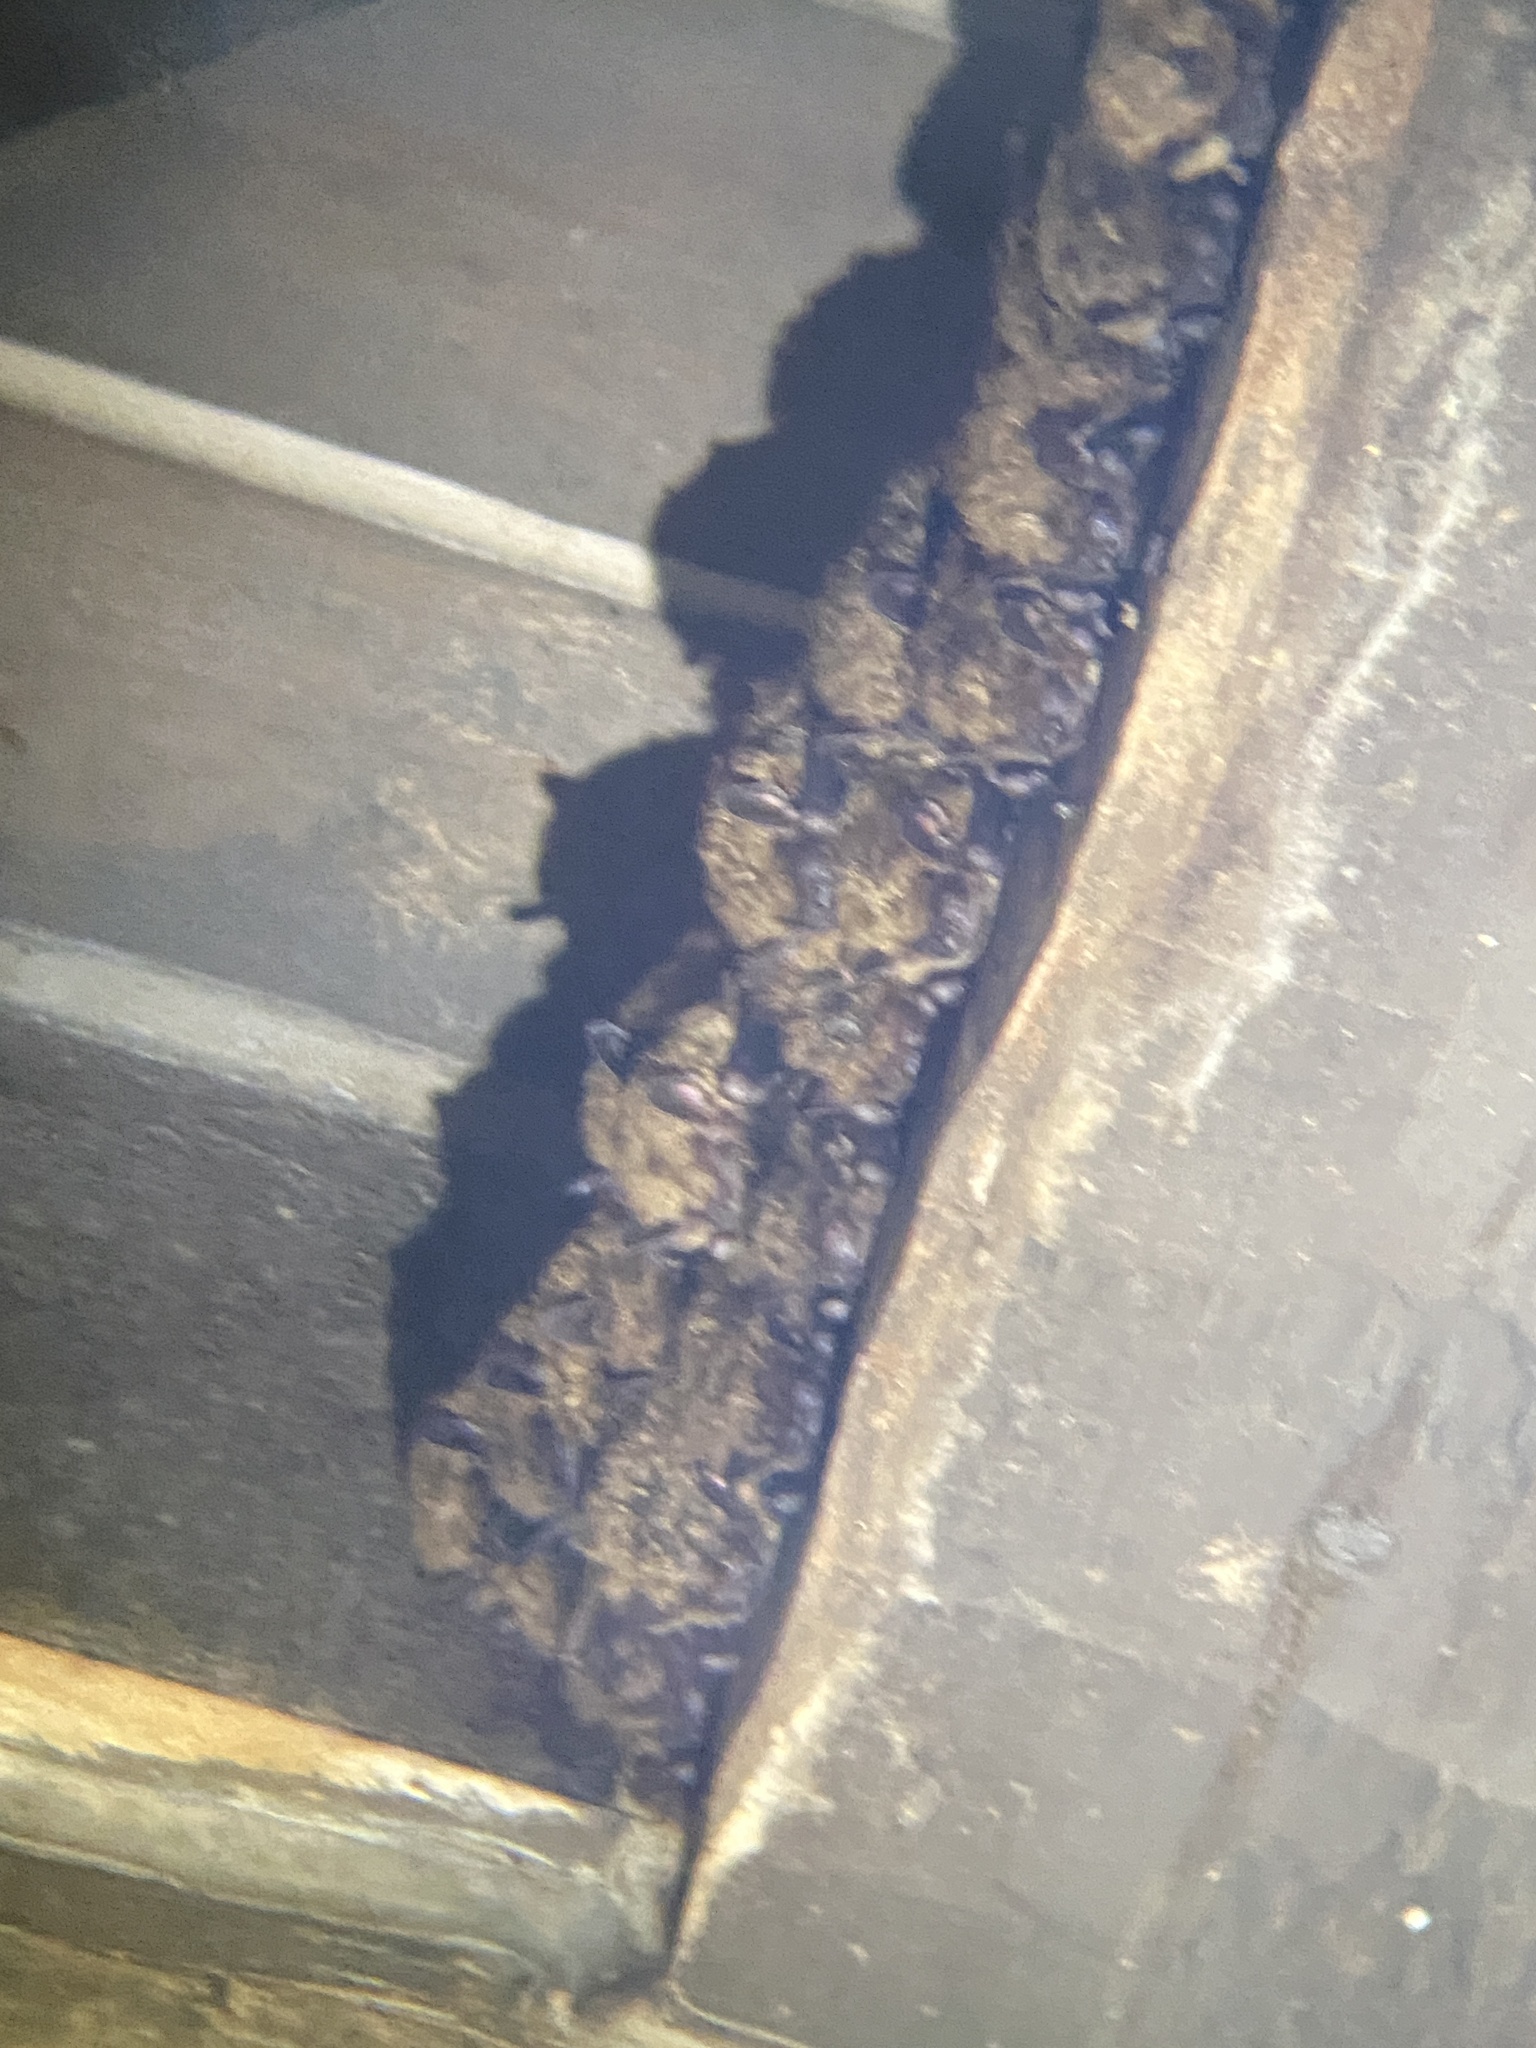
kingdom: Animalia
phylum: Chordata
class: Mammalia
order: Chiroptera
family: Vespertilionidae
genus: Eptesicus
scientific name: Eptesicus fuscus
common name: Big brown bat
